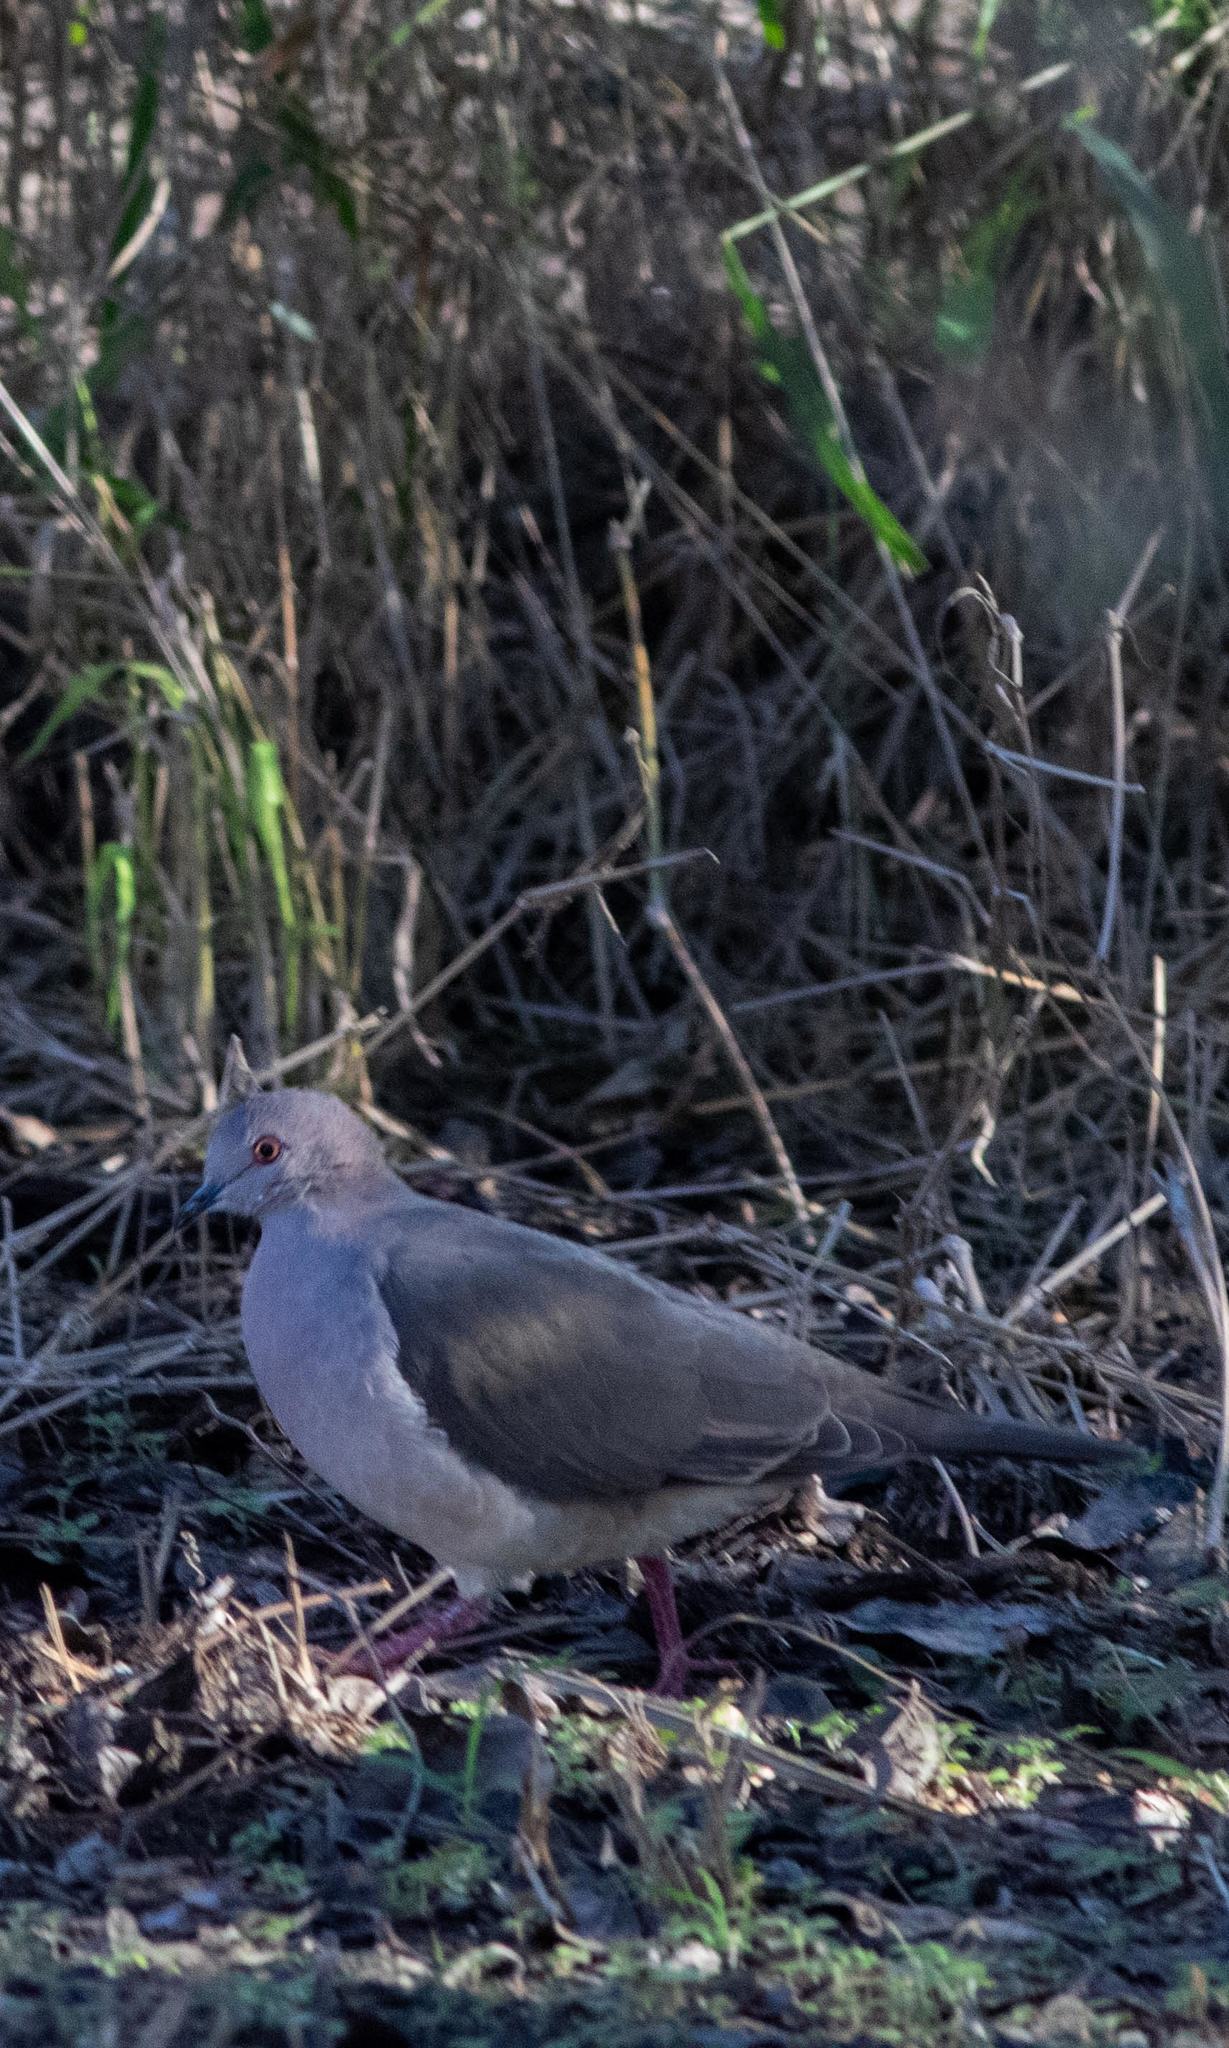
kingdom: Animalia
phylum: Chordata
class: Aves
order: Columbiformes
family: Columbidae
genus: Leptotila
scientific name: Leptotila verreauxi
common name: White-tipped dove
